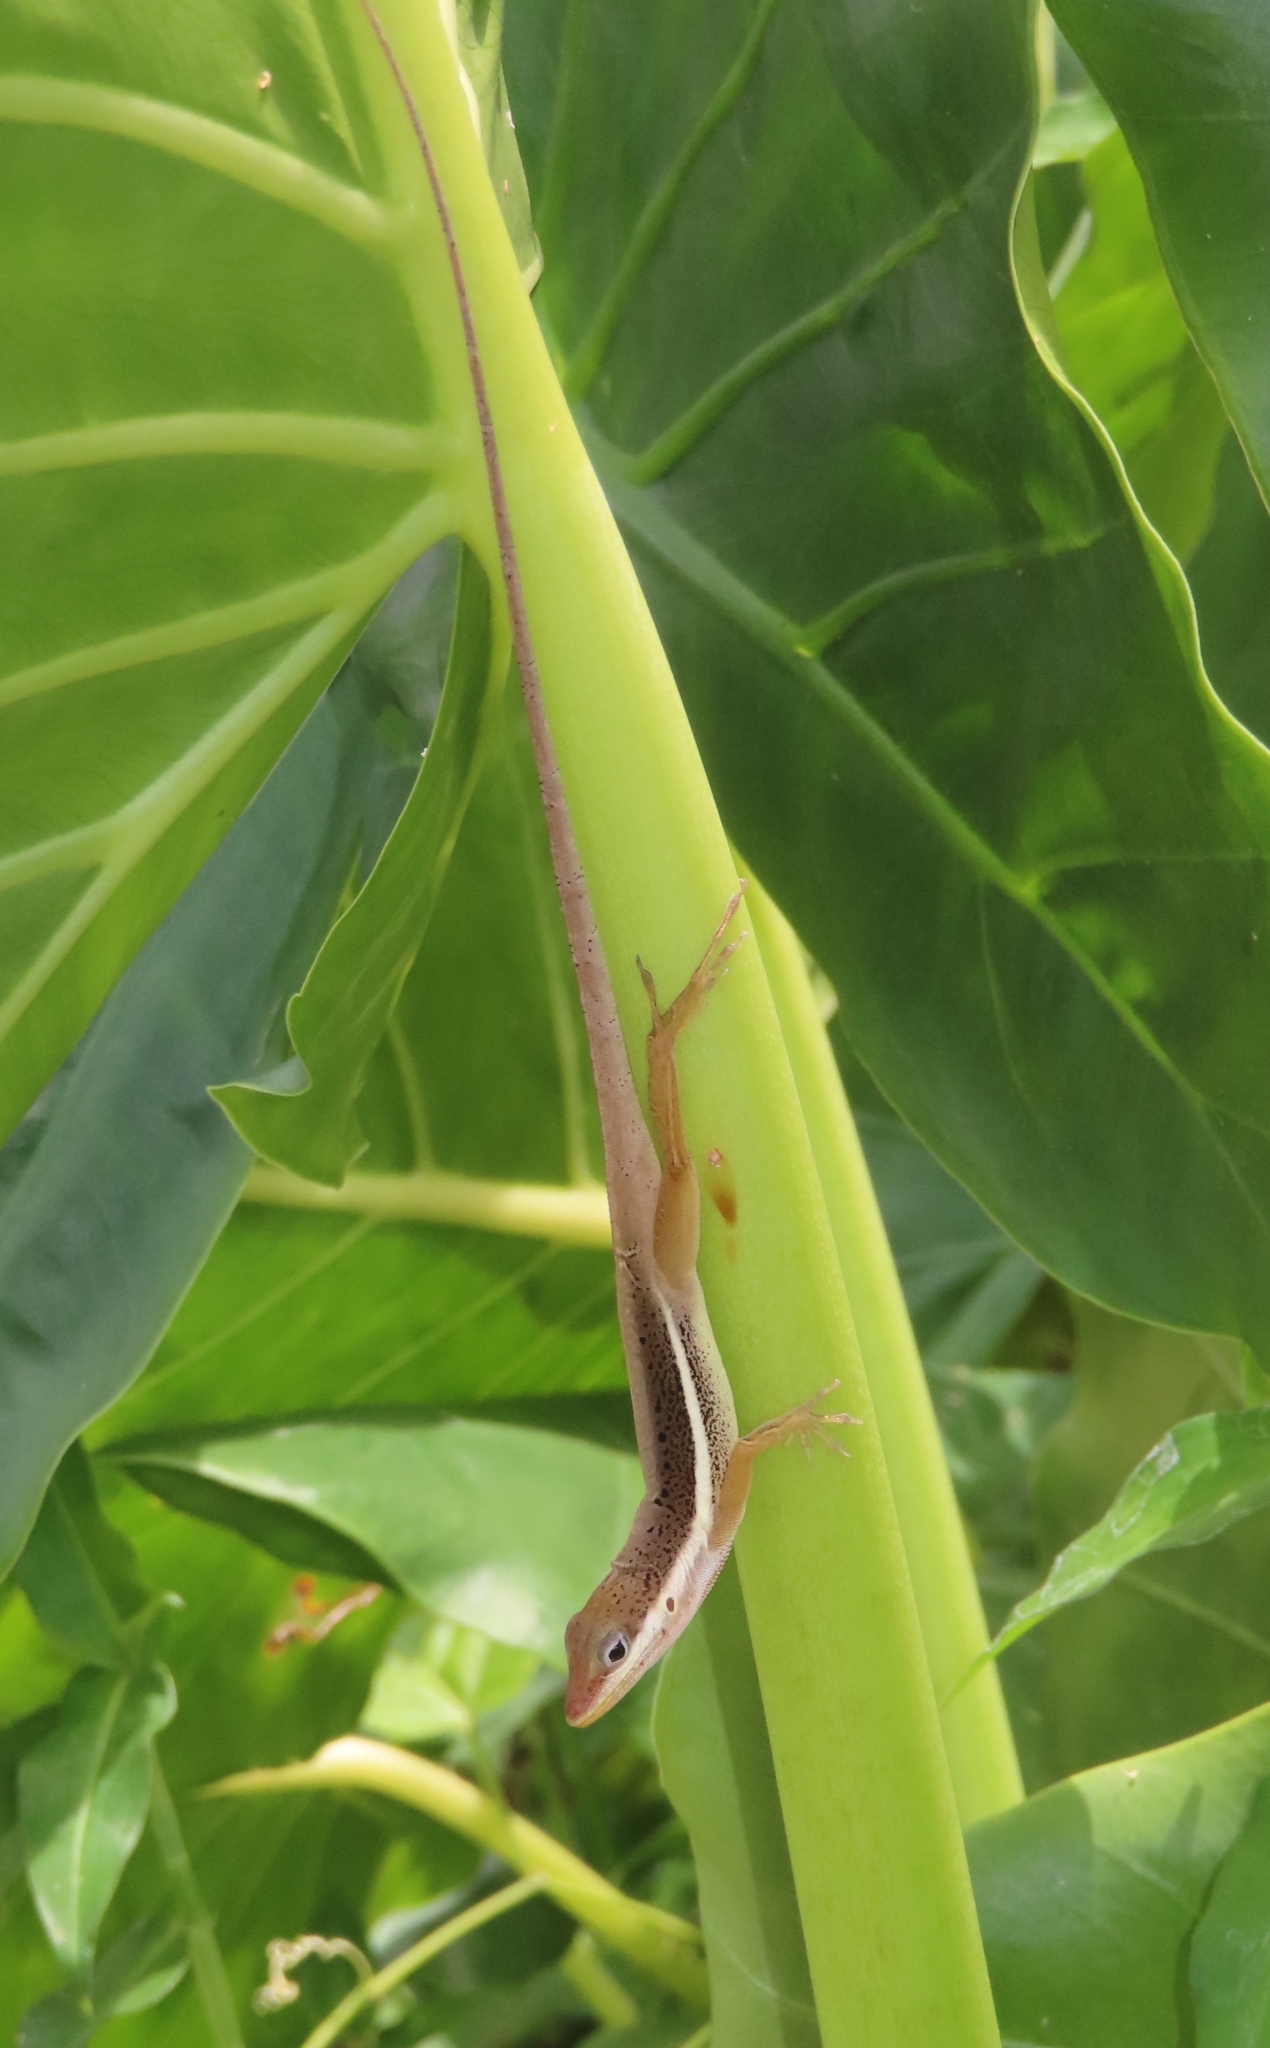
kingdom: Animalia
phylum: Chordata
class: Squamata
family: Dactyloidae
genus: Anolis
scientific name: Anolis krugi
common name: Krug's anole
